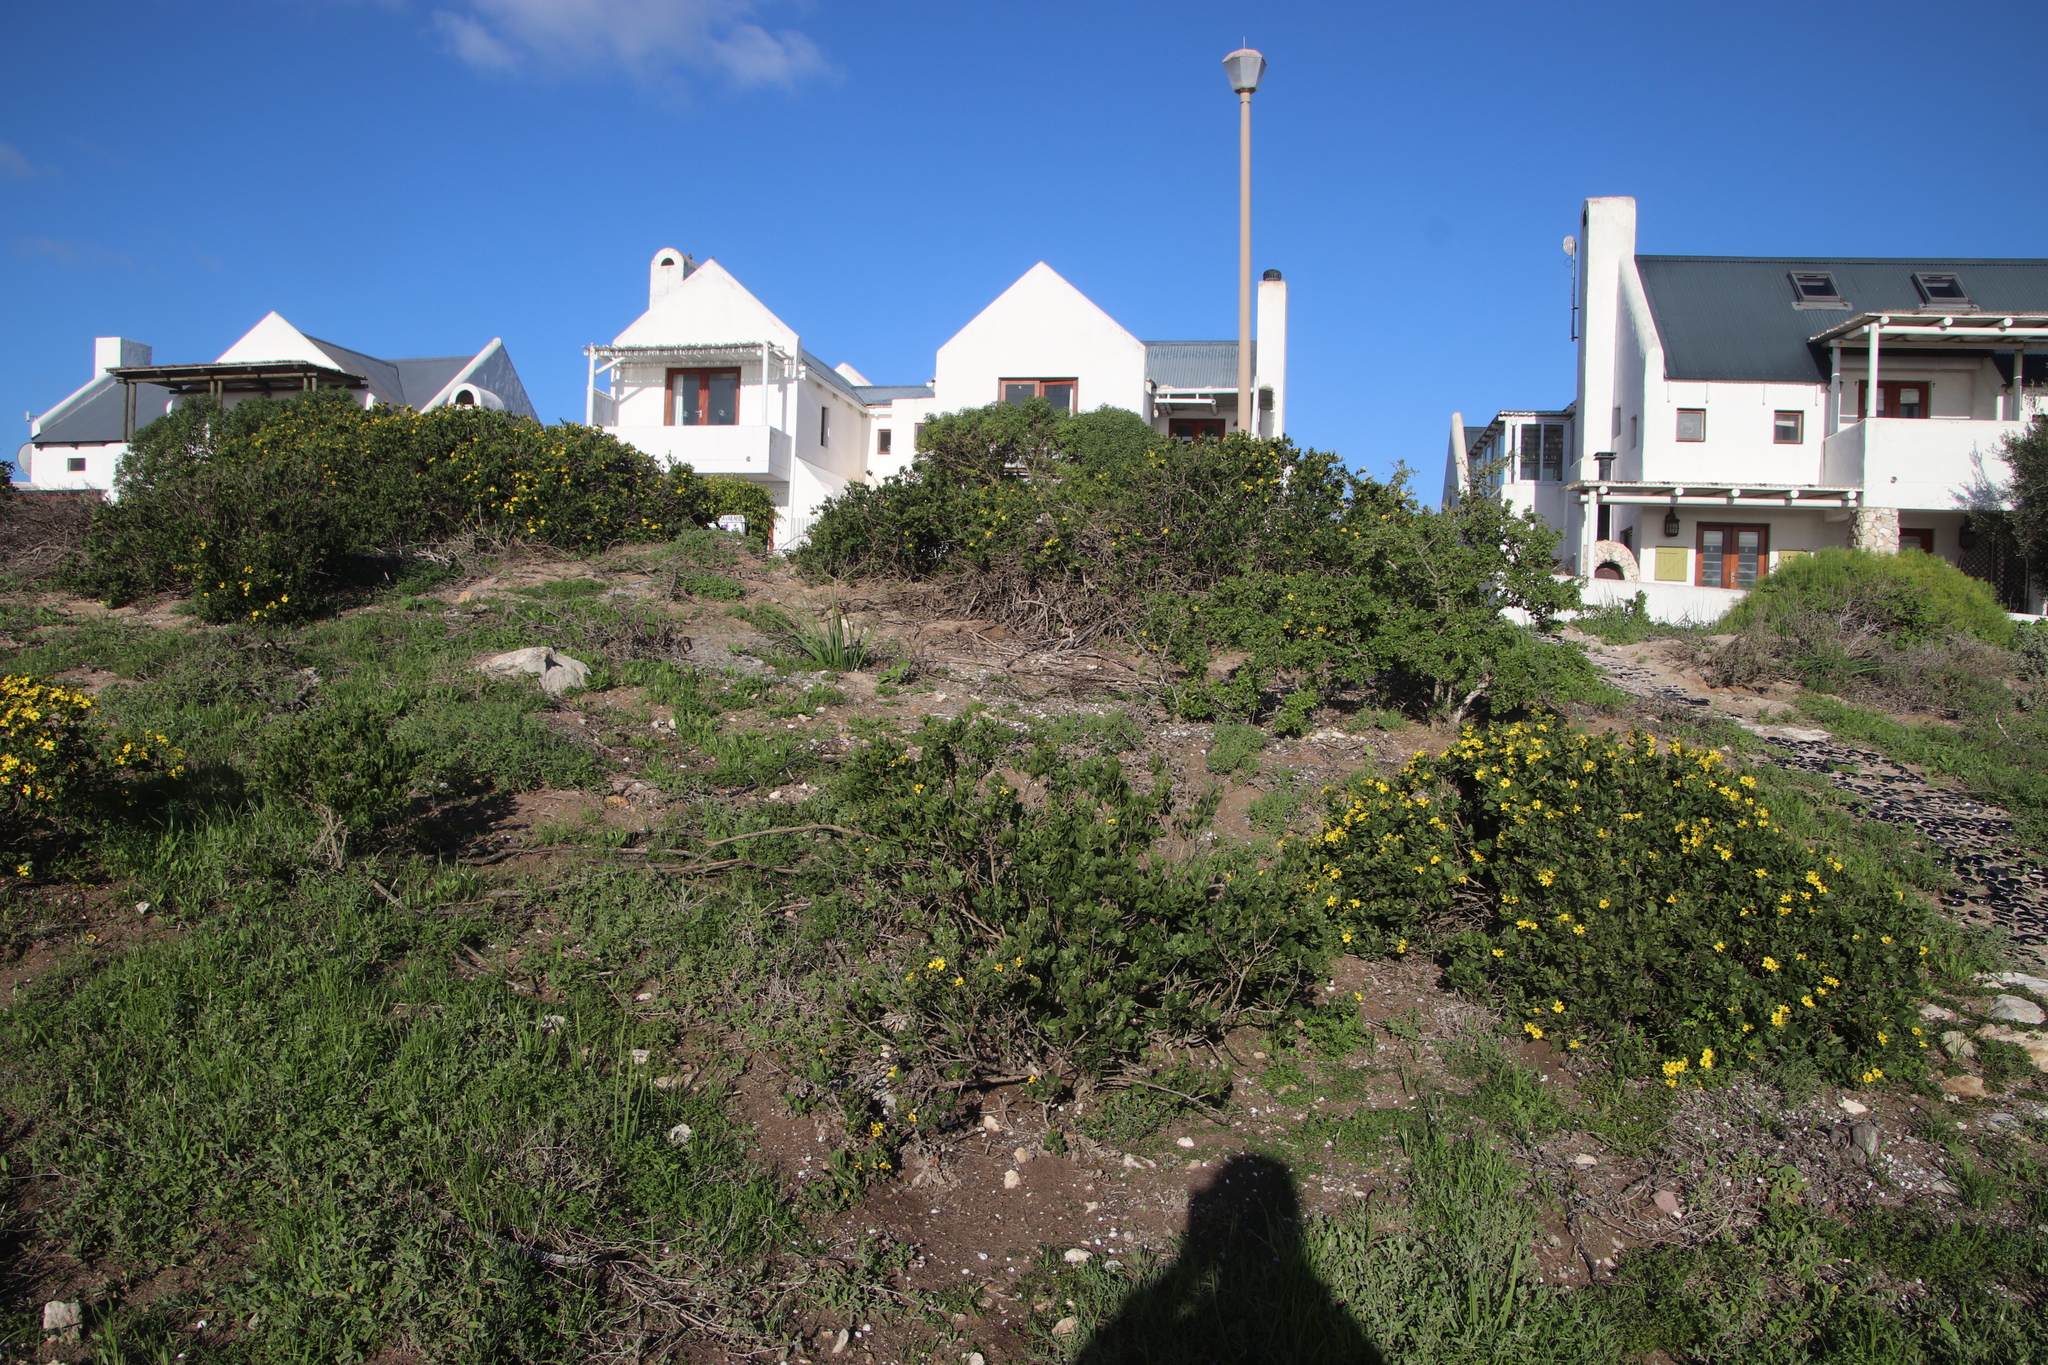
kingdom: Plantae
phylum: Tracheophyta
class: Magnoliopsida
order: Asterales
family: Asteraceae
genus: Osteospermum
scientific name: Osteospermum moniliferum
